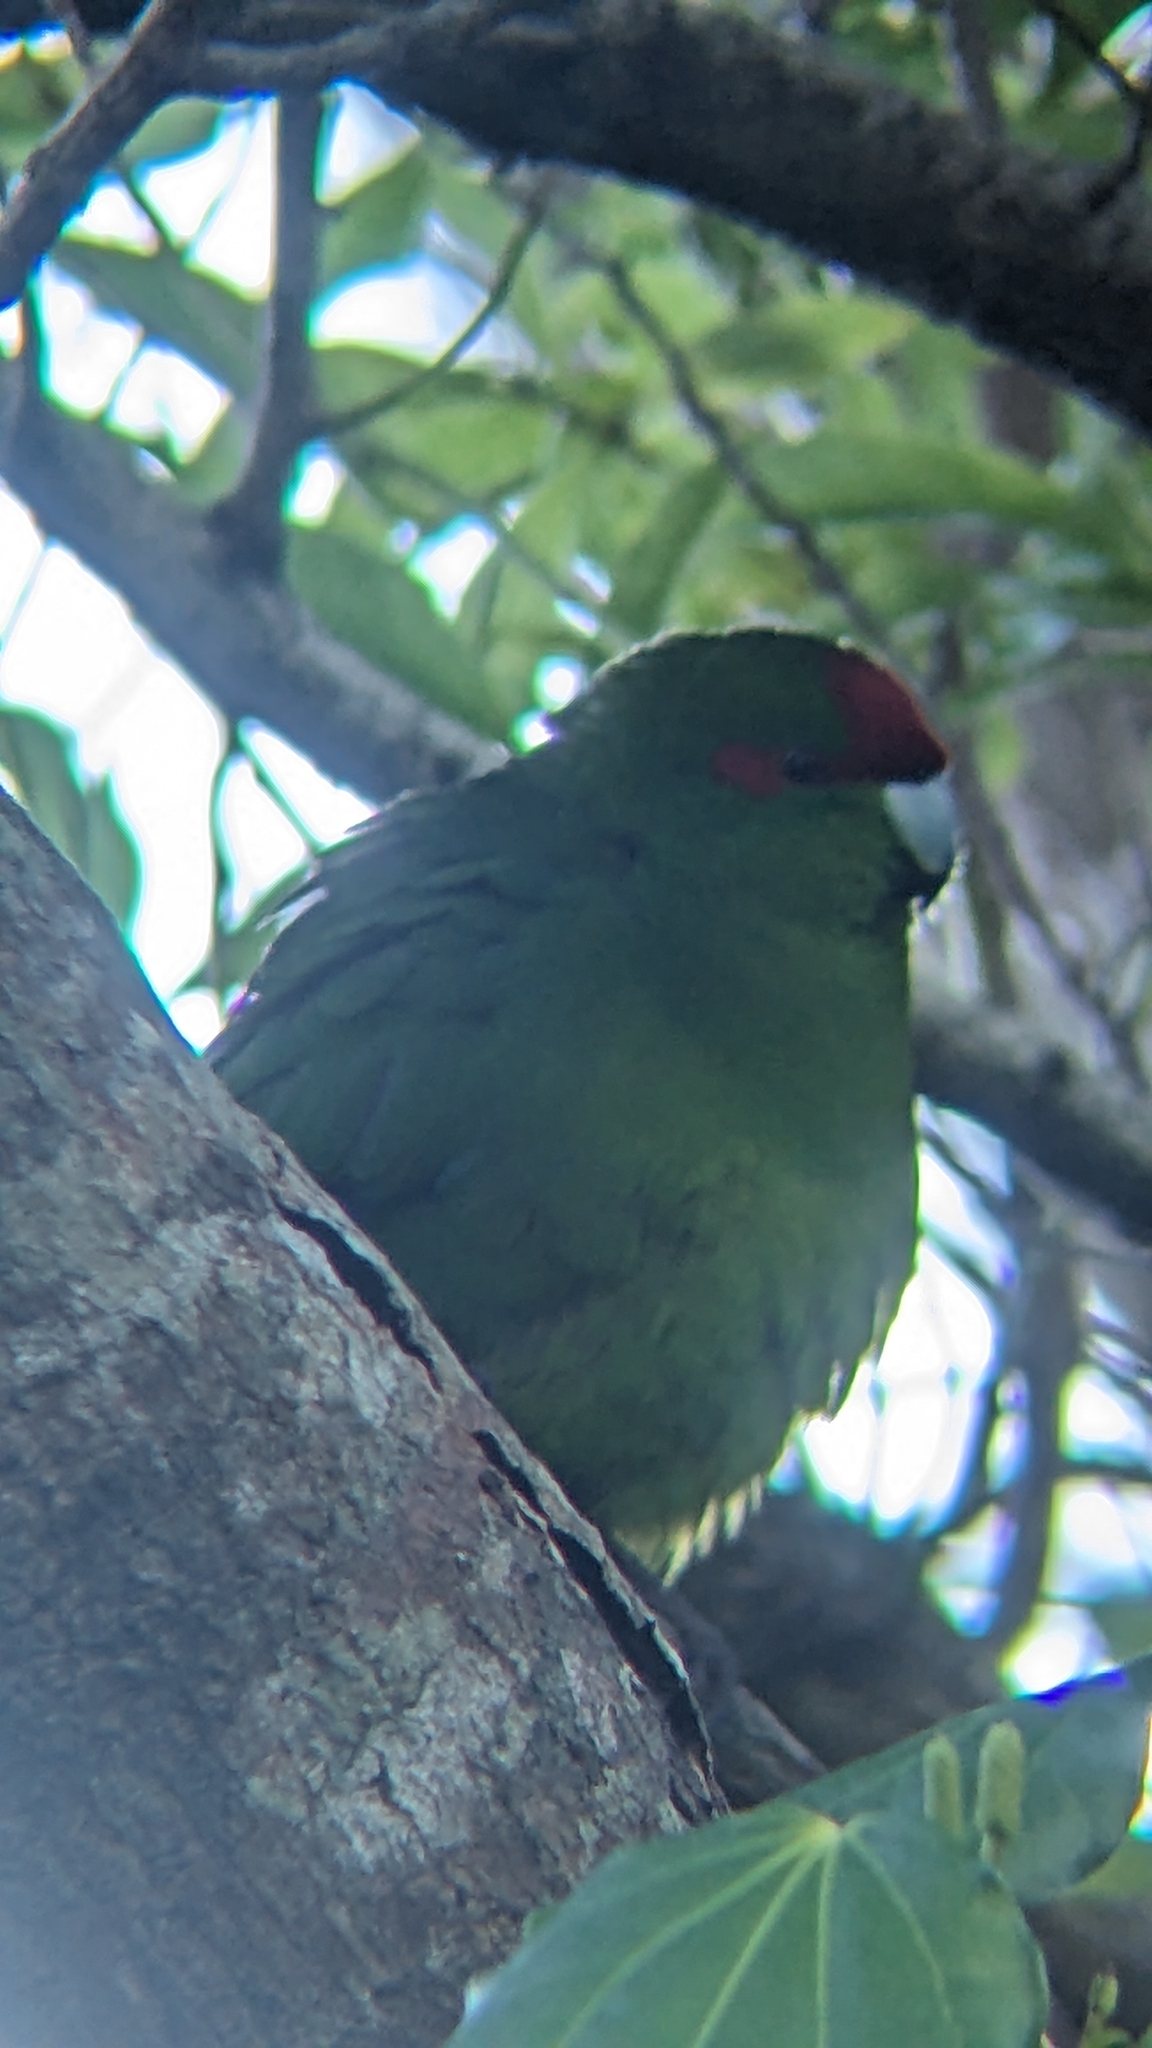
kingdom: Animalia
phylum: Chordata
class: Aves
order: Psittaciformes
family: Psittacidae
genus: Cyanoramphus
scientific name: Cyanoramphus novaezelandiae
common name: Red-fronted parakeet
